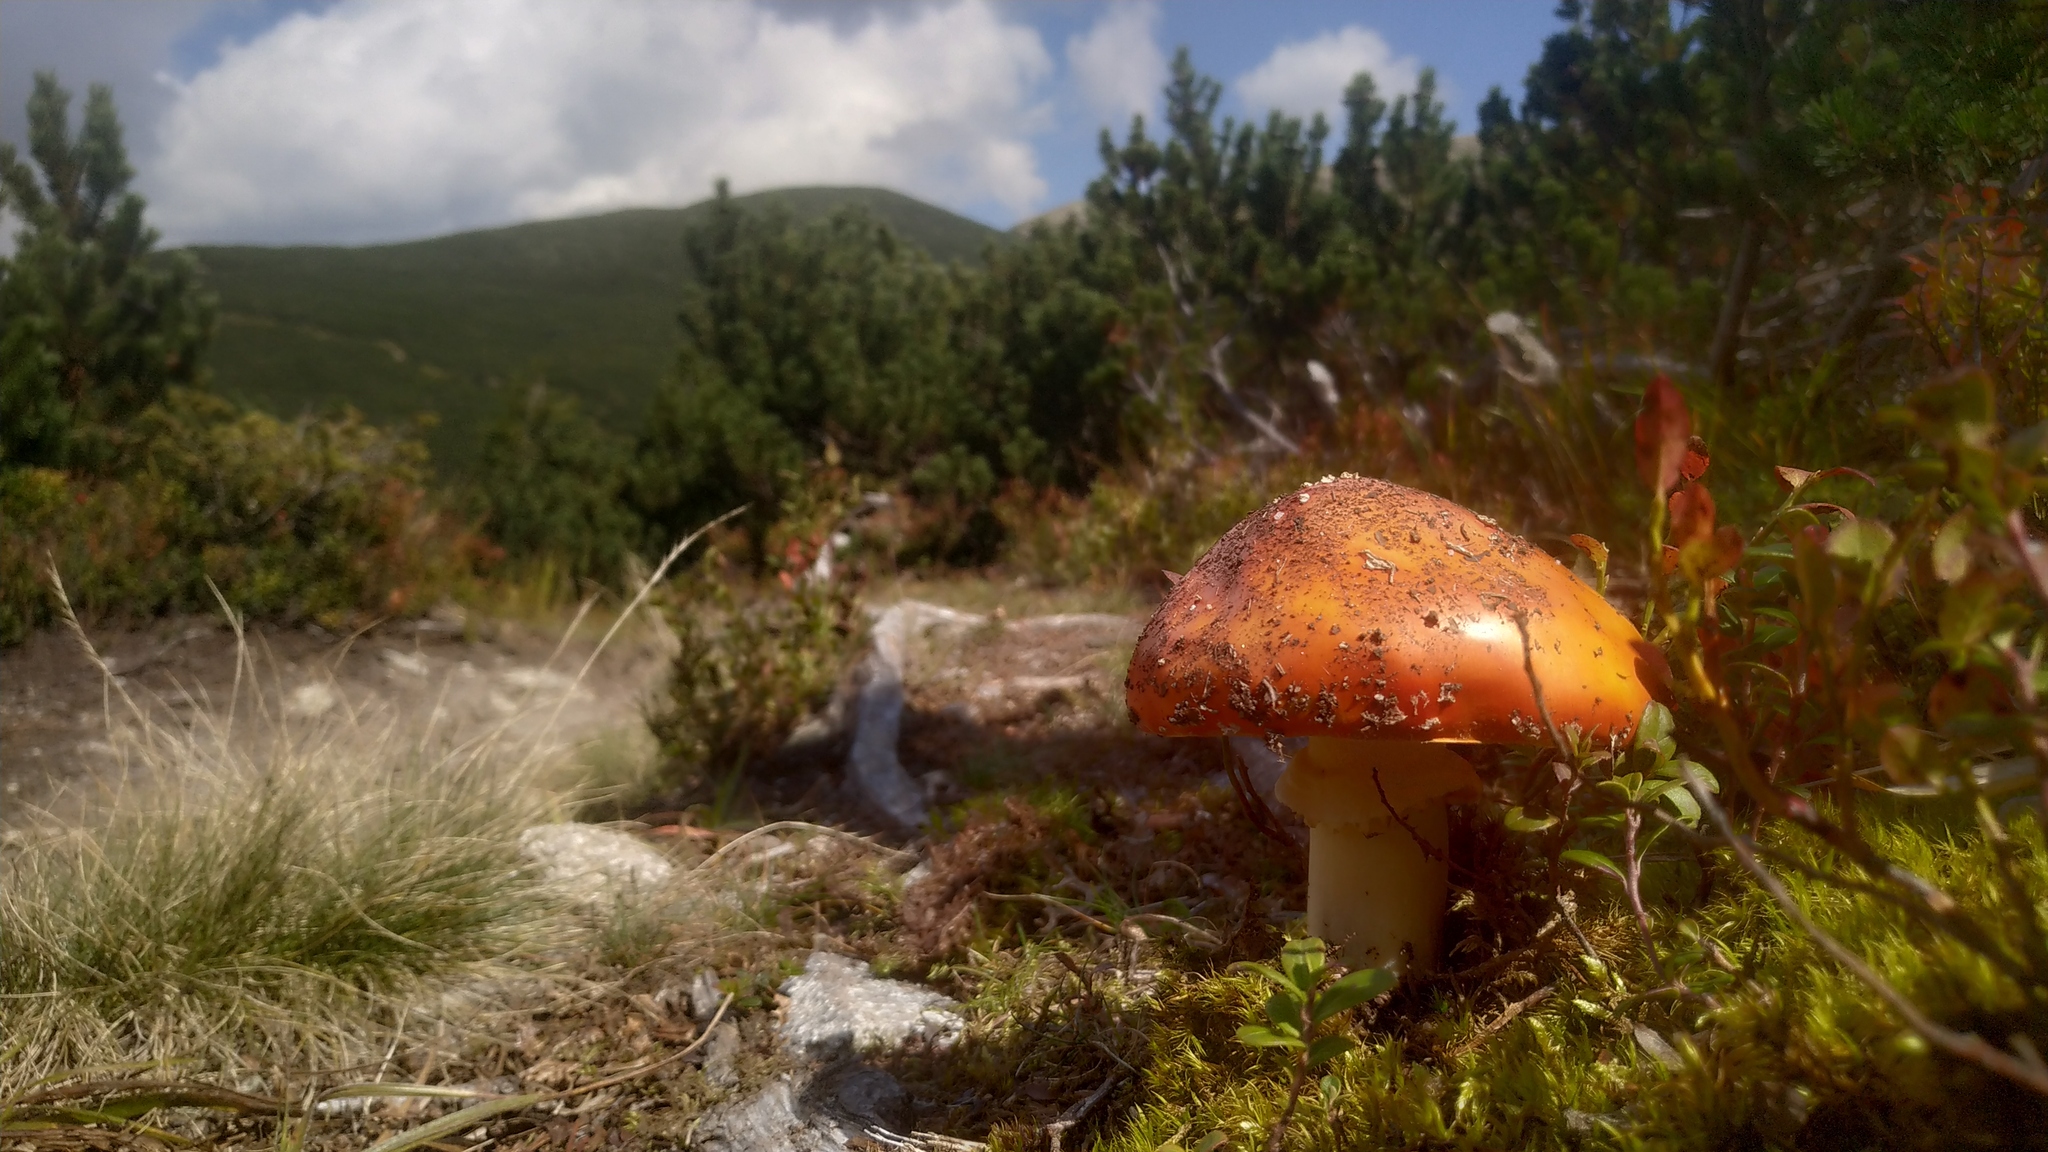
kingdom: Fungi
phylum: Basidiomycota
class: Agaricomycetes
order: Agaricales
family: Amanitaceae
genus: Amanita
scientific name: Amanita muscaria
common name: Fly agaric
